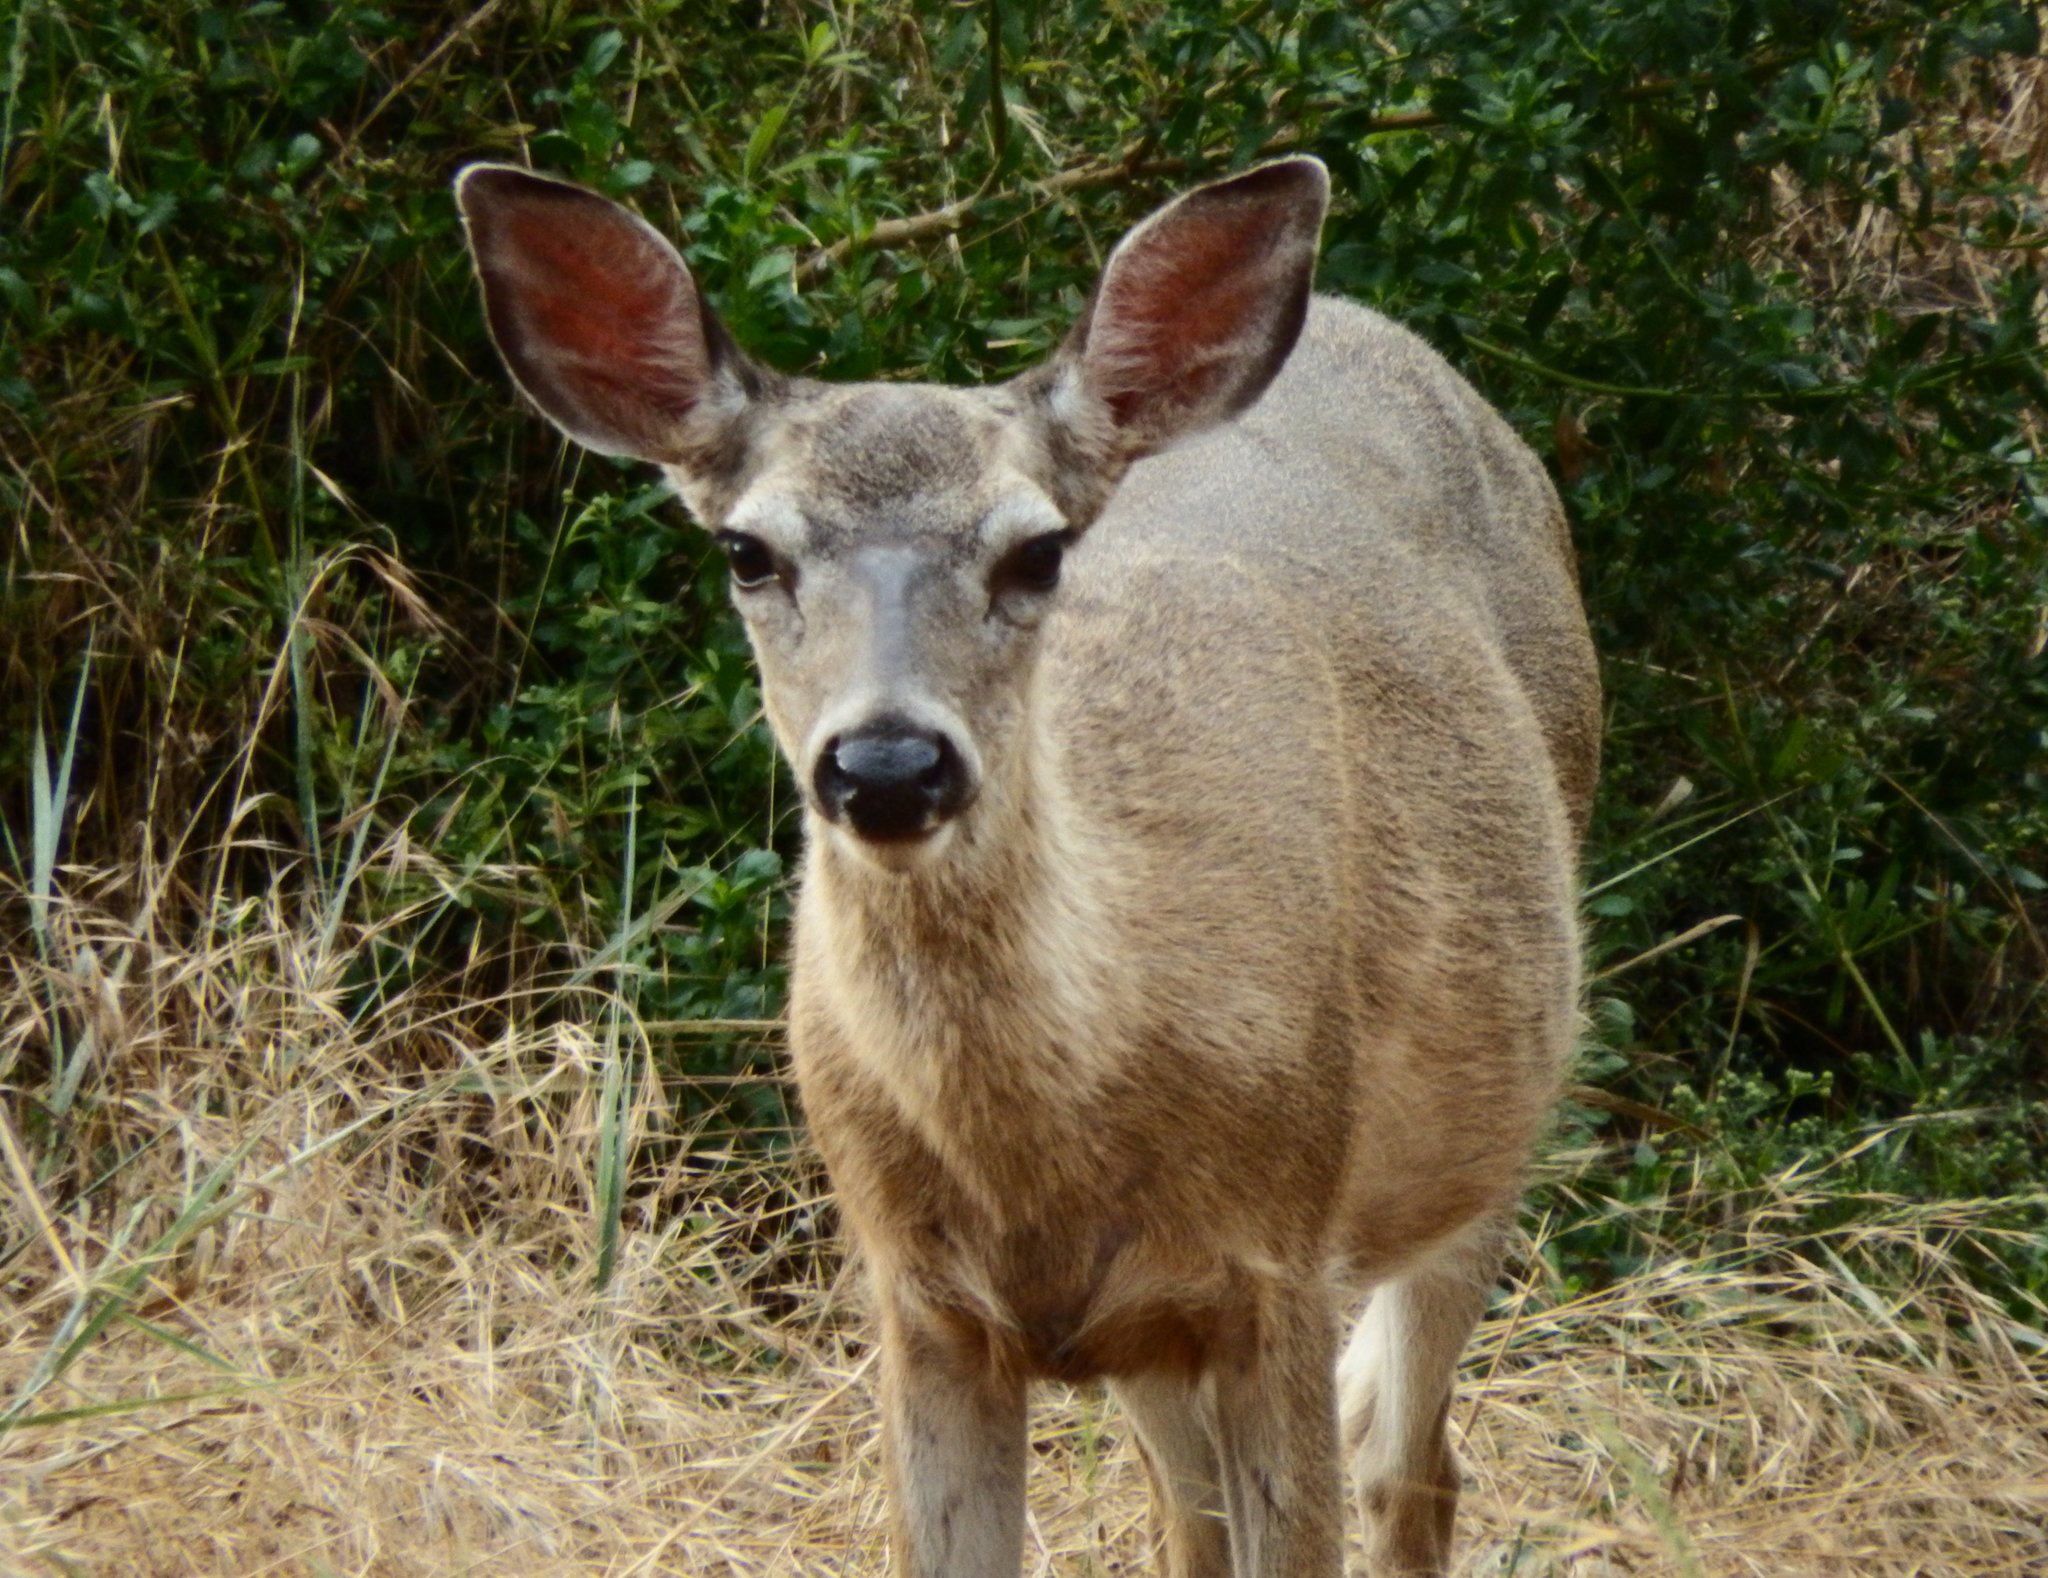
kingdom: Animalia
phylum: Chordata
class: Mammalia
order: Artiodactyla
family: Cervidae
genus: Odocoileus
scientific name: Odocoileus hemionus
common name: Mule deer
